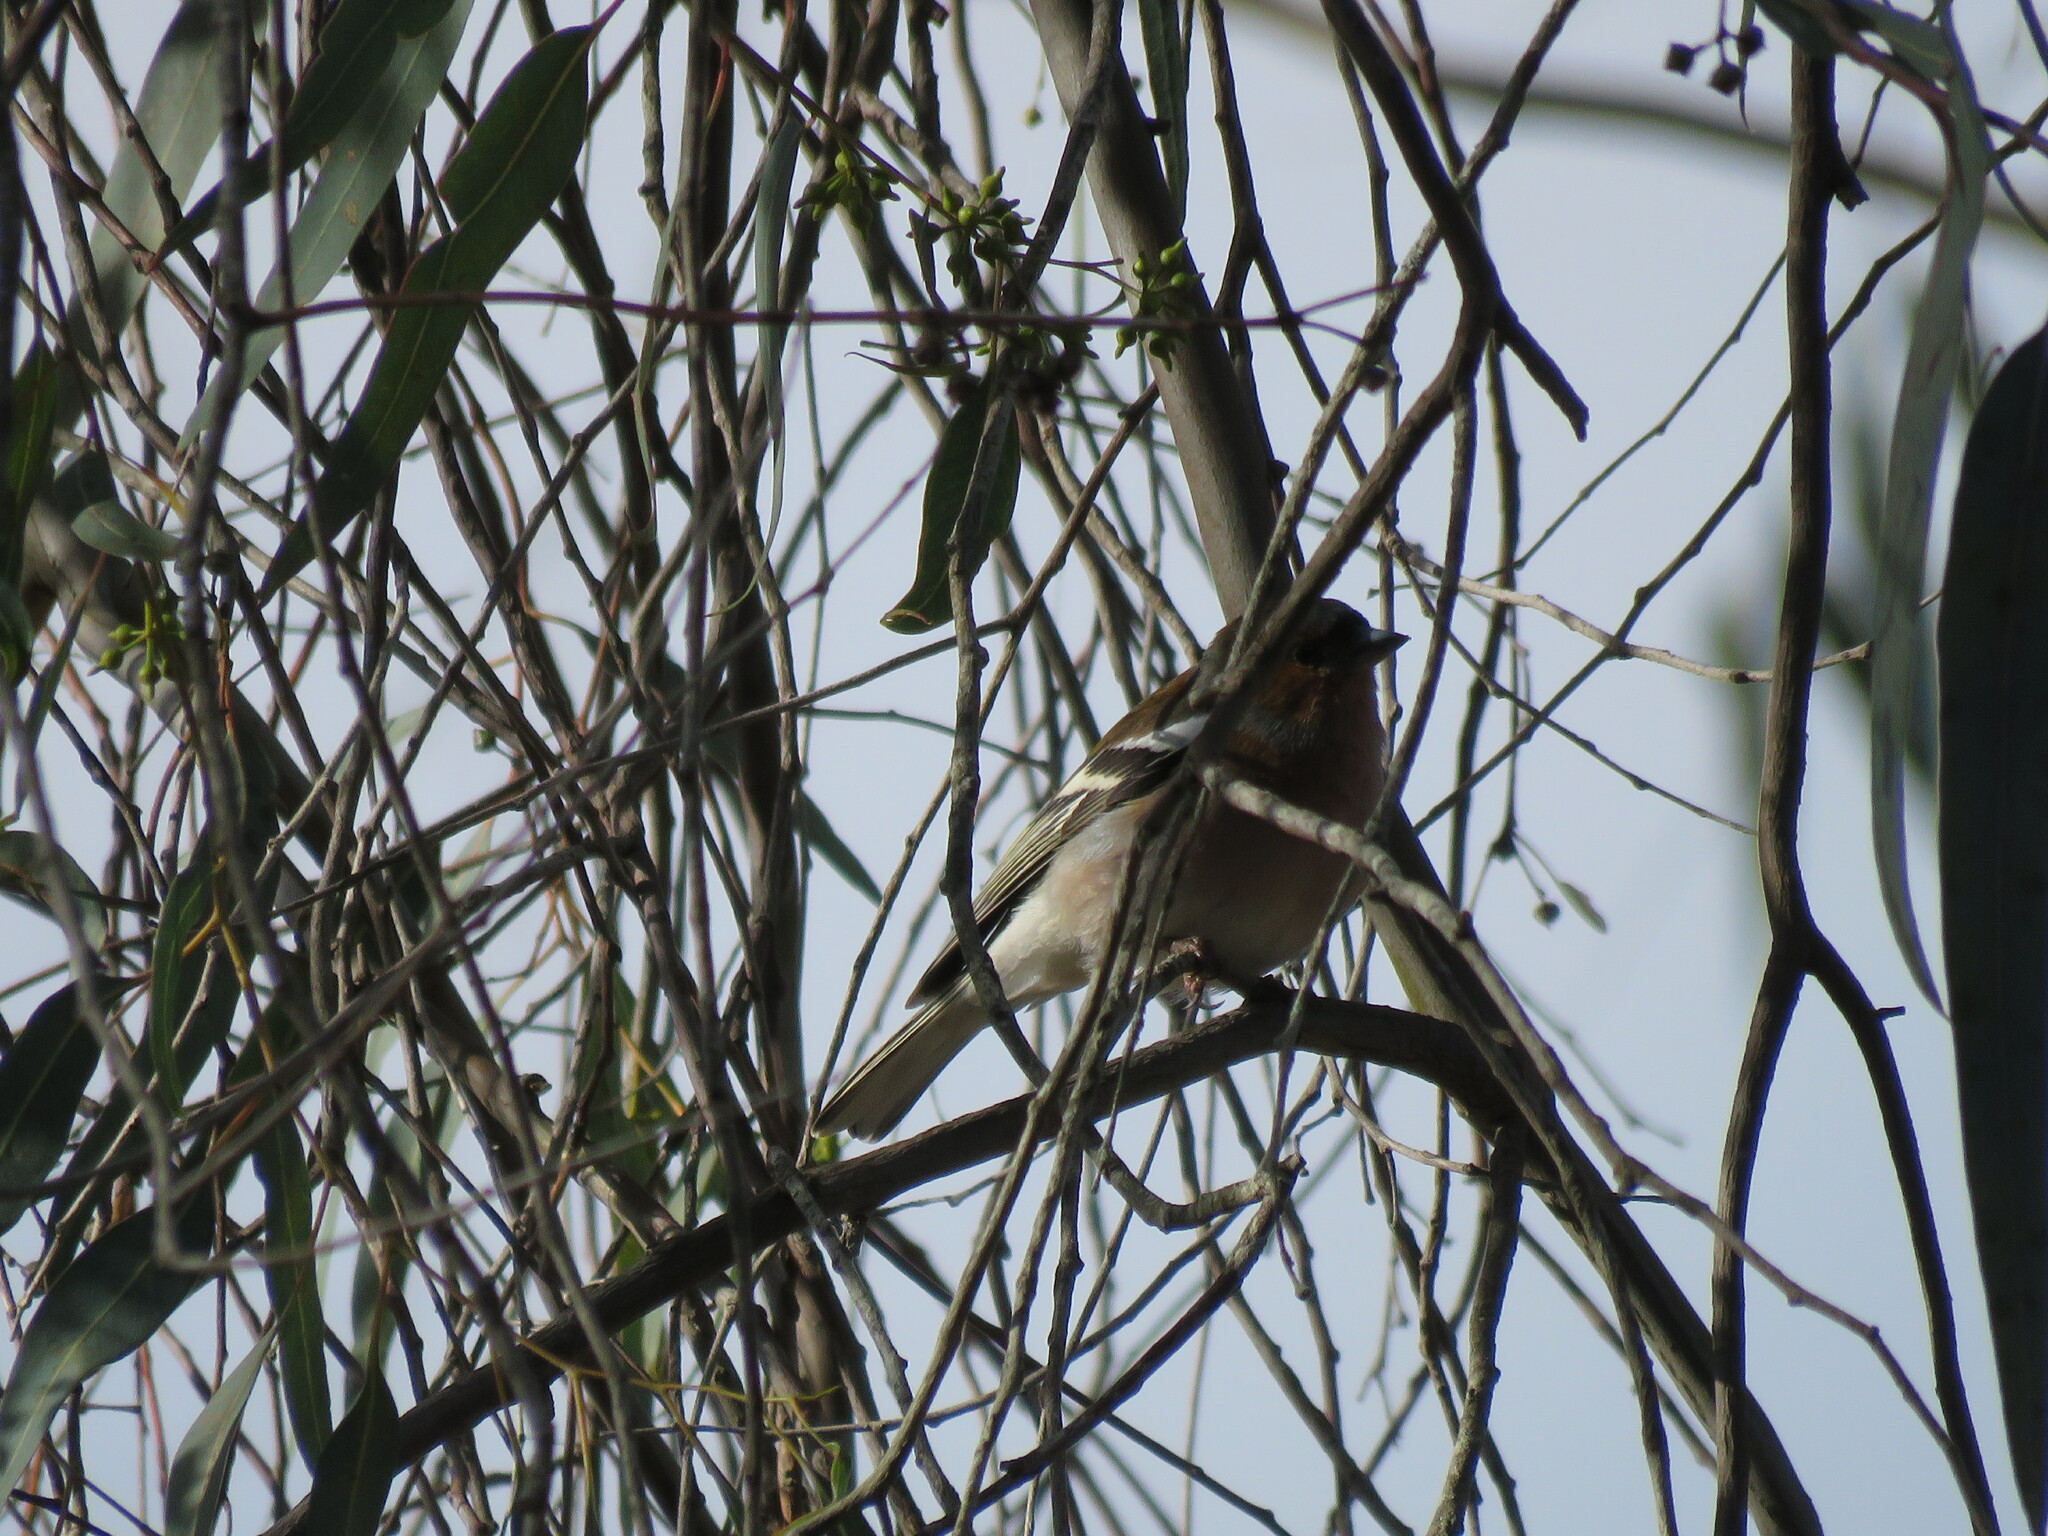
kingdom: Animalia
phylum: Chordata
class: Aves
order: Passeriformes
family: Fringillidae
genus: Fringilla
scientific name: Fringilla coelebs
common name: Common chaffinch
